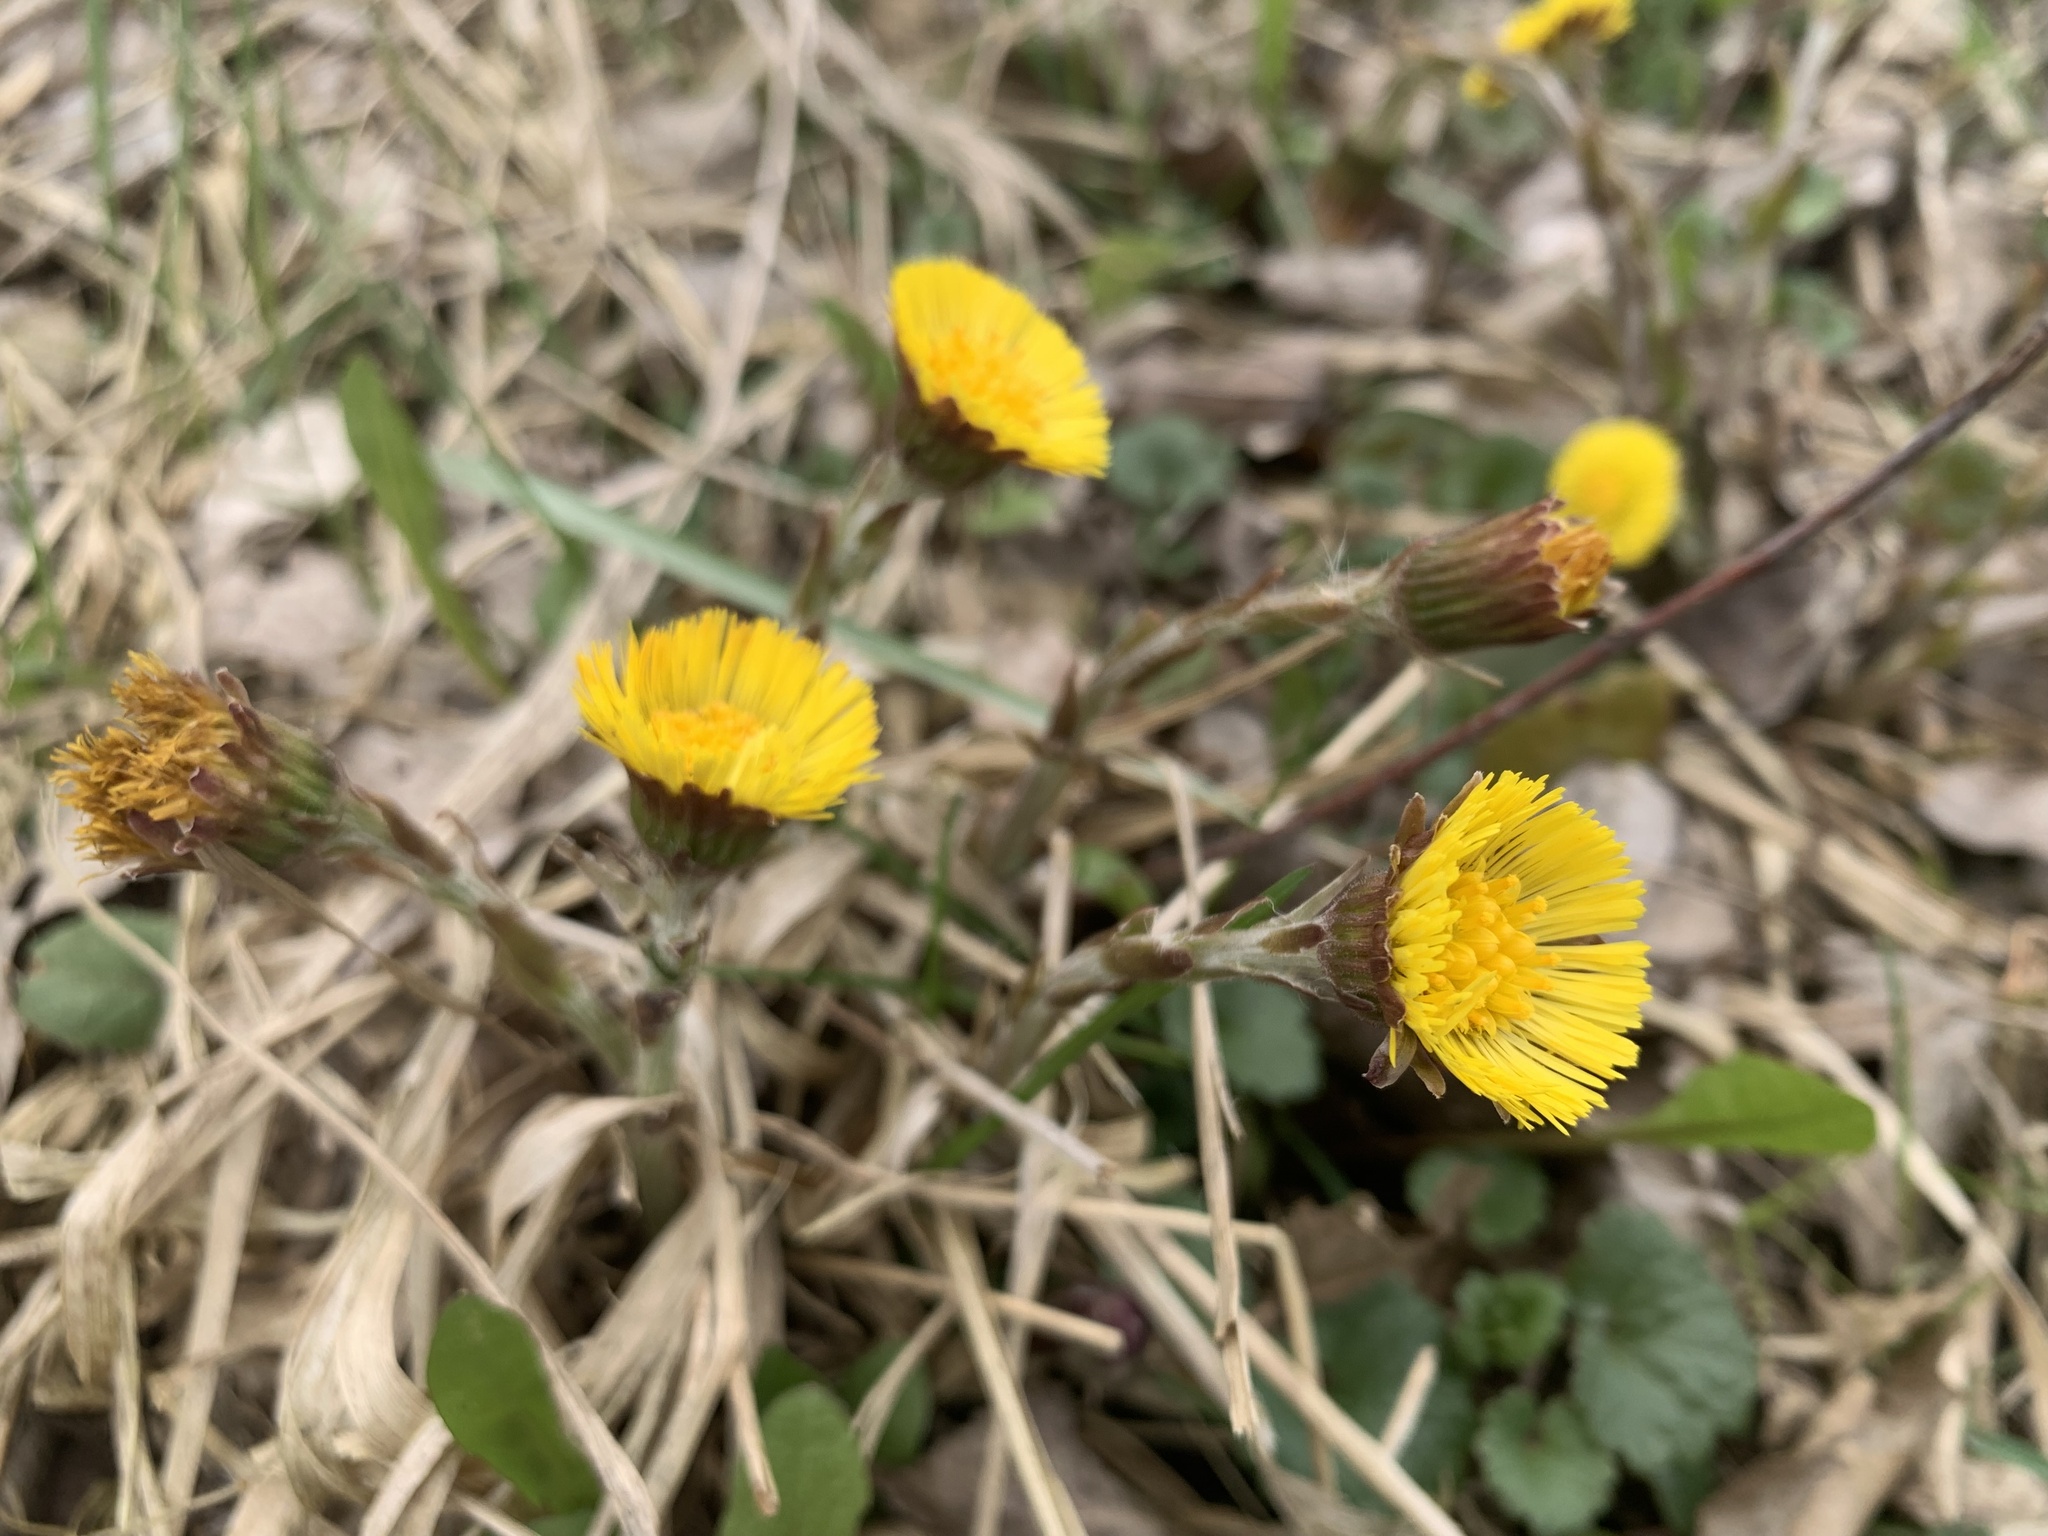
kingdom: Plantae
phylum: Tracheophyta
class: Magnoliopsida
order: Asterales
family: Asteraceae
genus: Tussilago
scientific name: Tussilago farfara
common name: Coltsfoot
